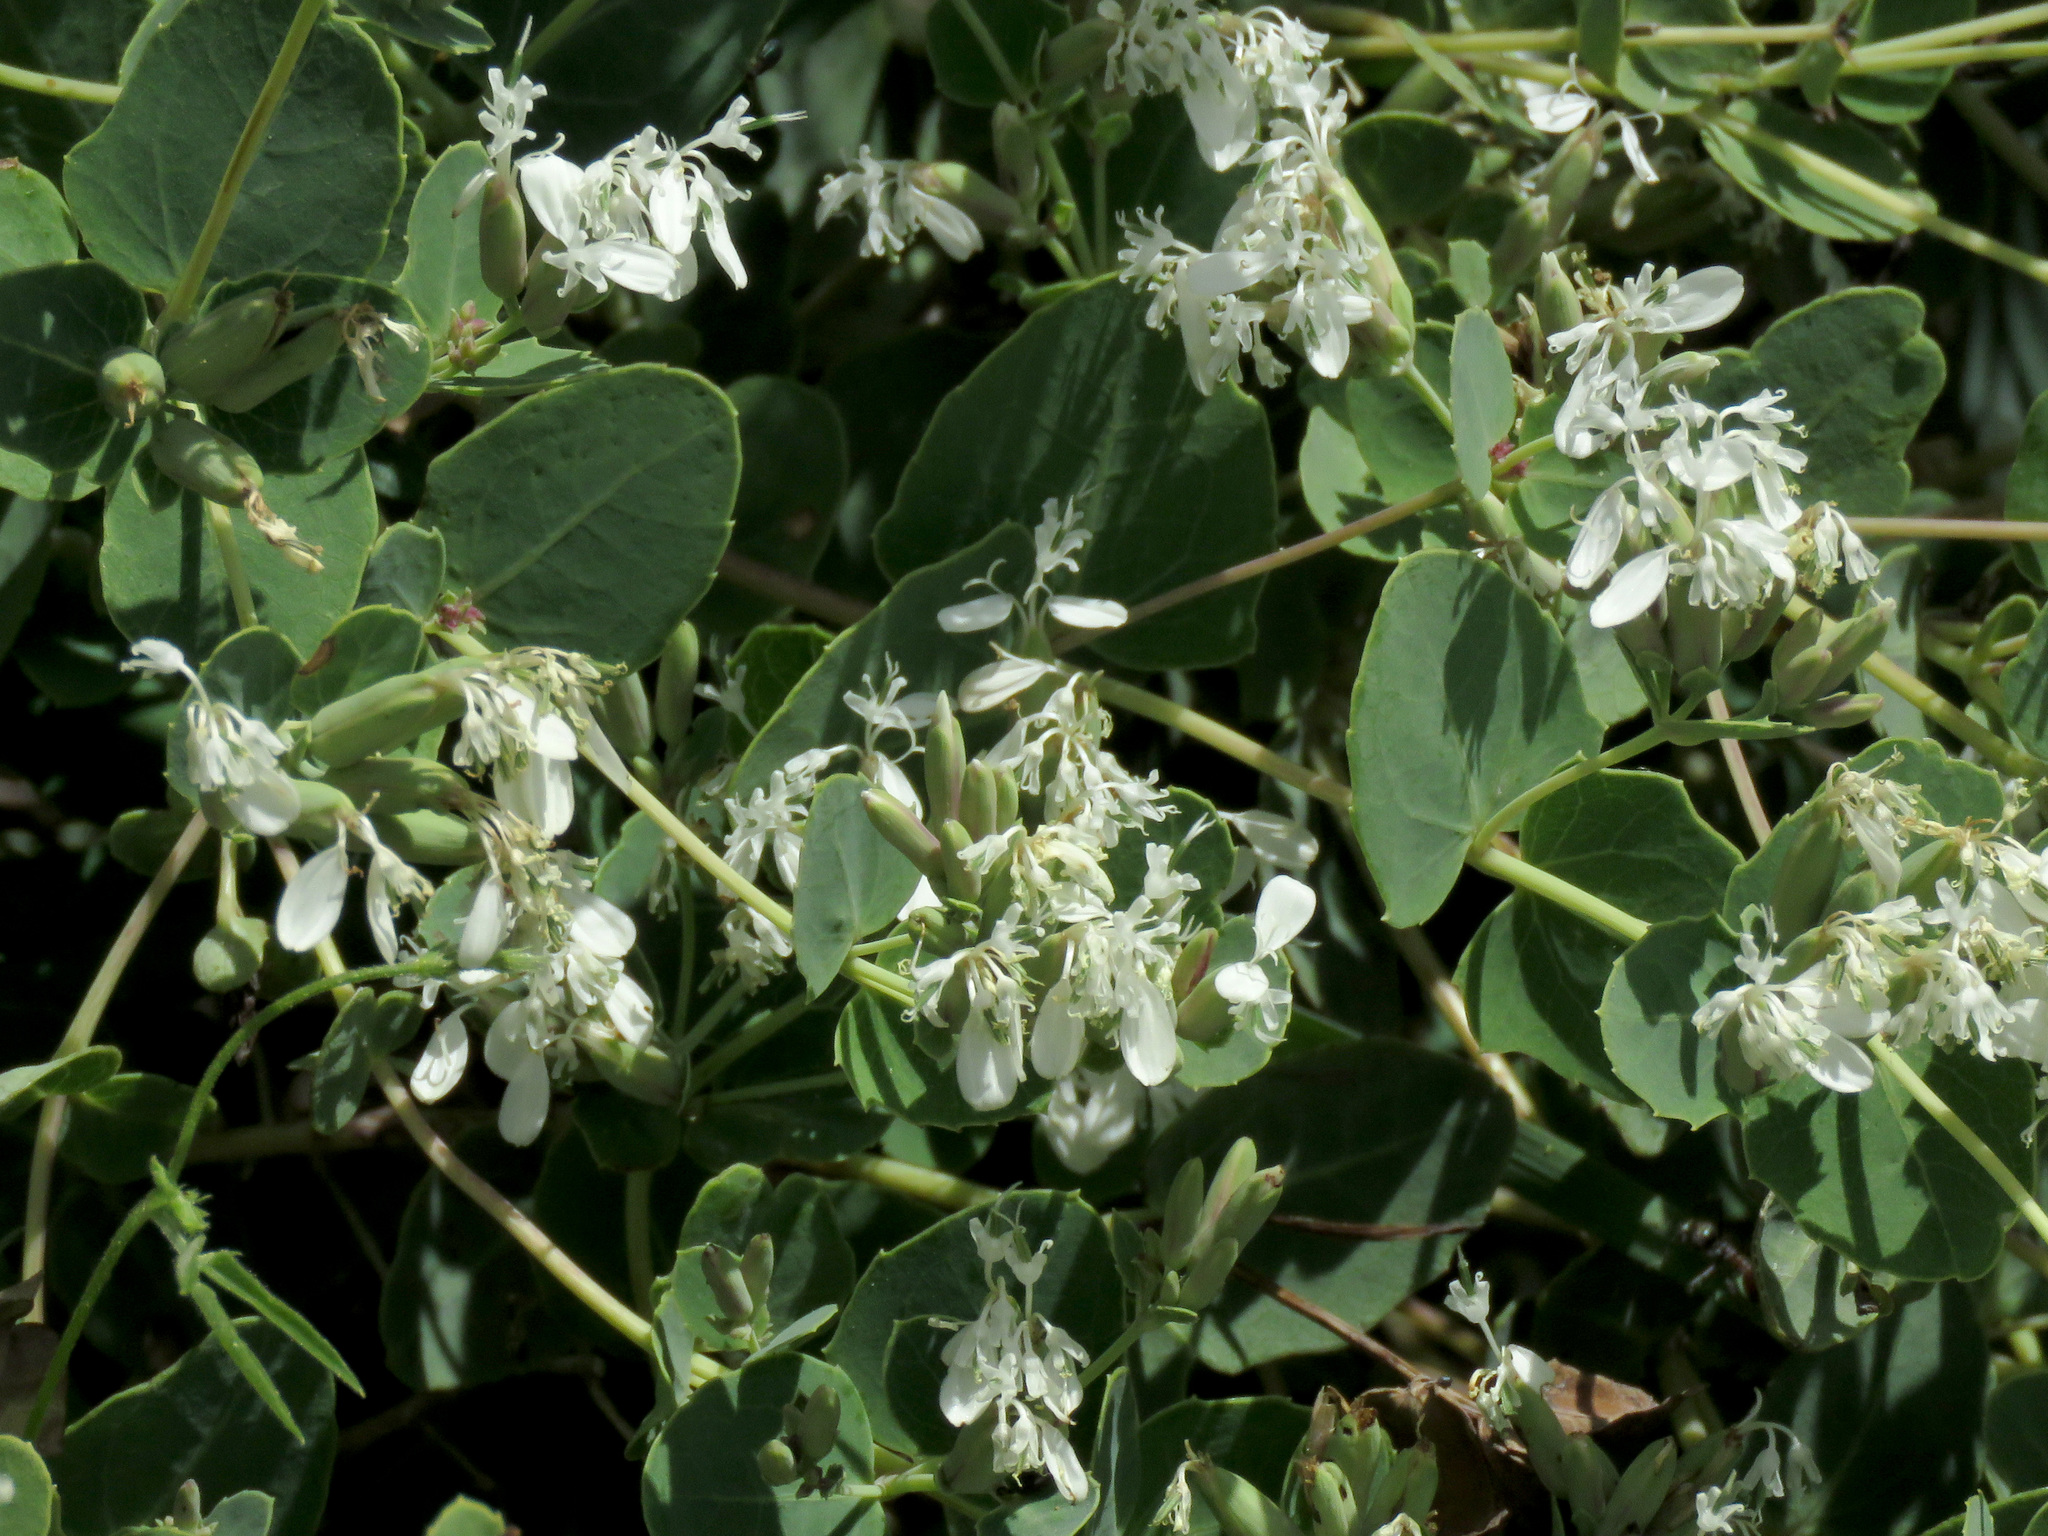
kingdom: Plantae
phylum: Tracheophyta
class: Magnoliopsida
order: Asterales
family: Asteraceae
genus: Guardiola
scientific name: Guardiola platyphylla
